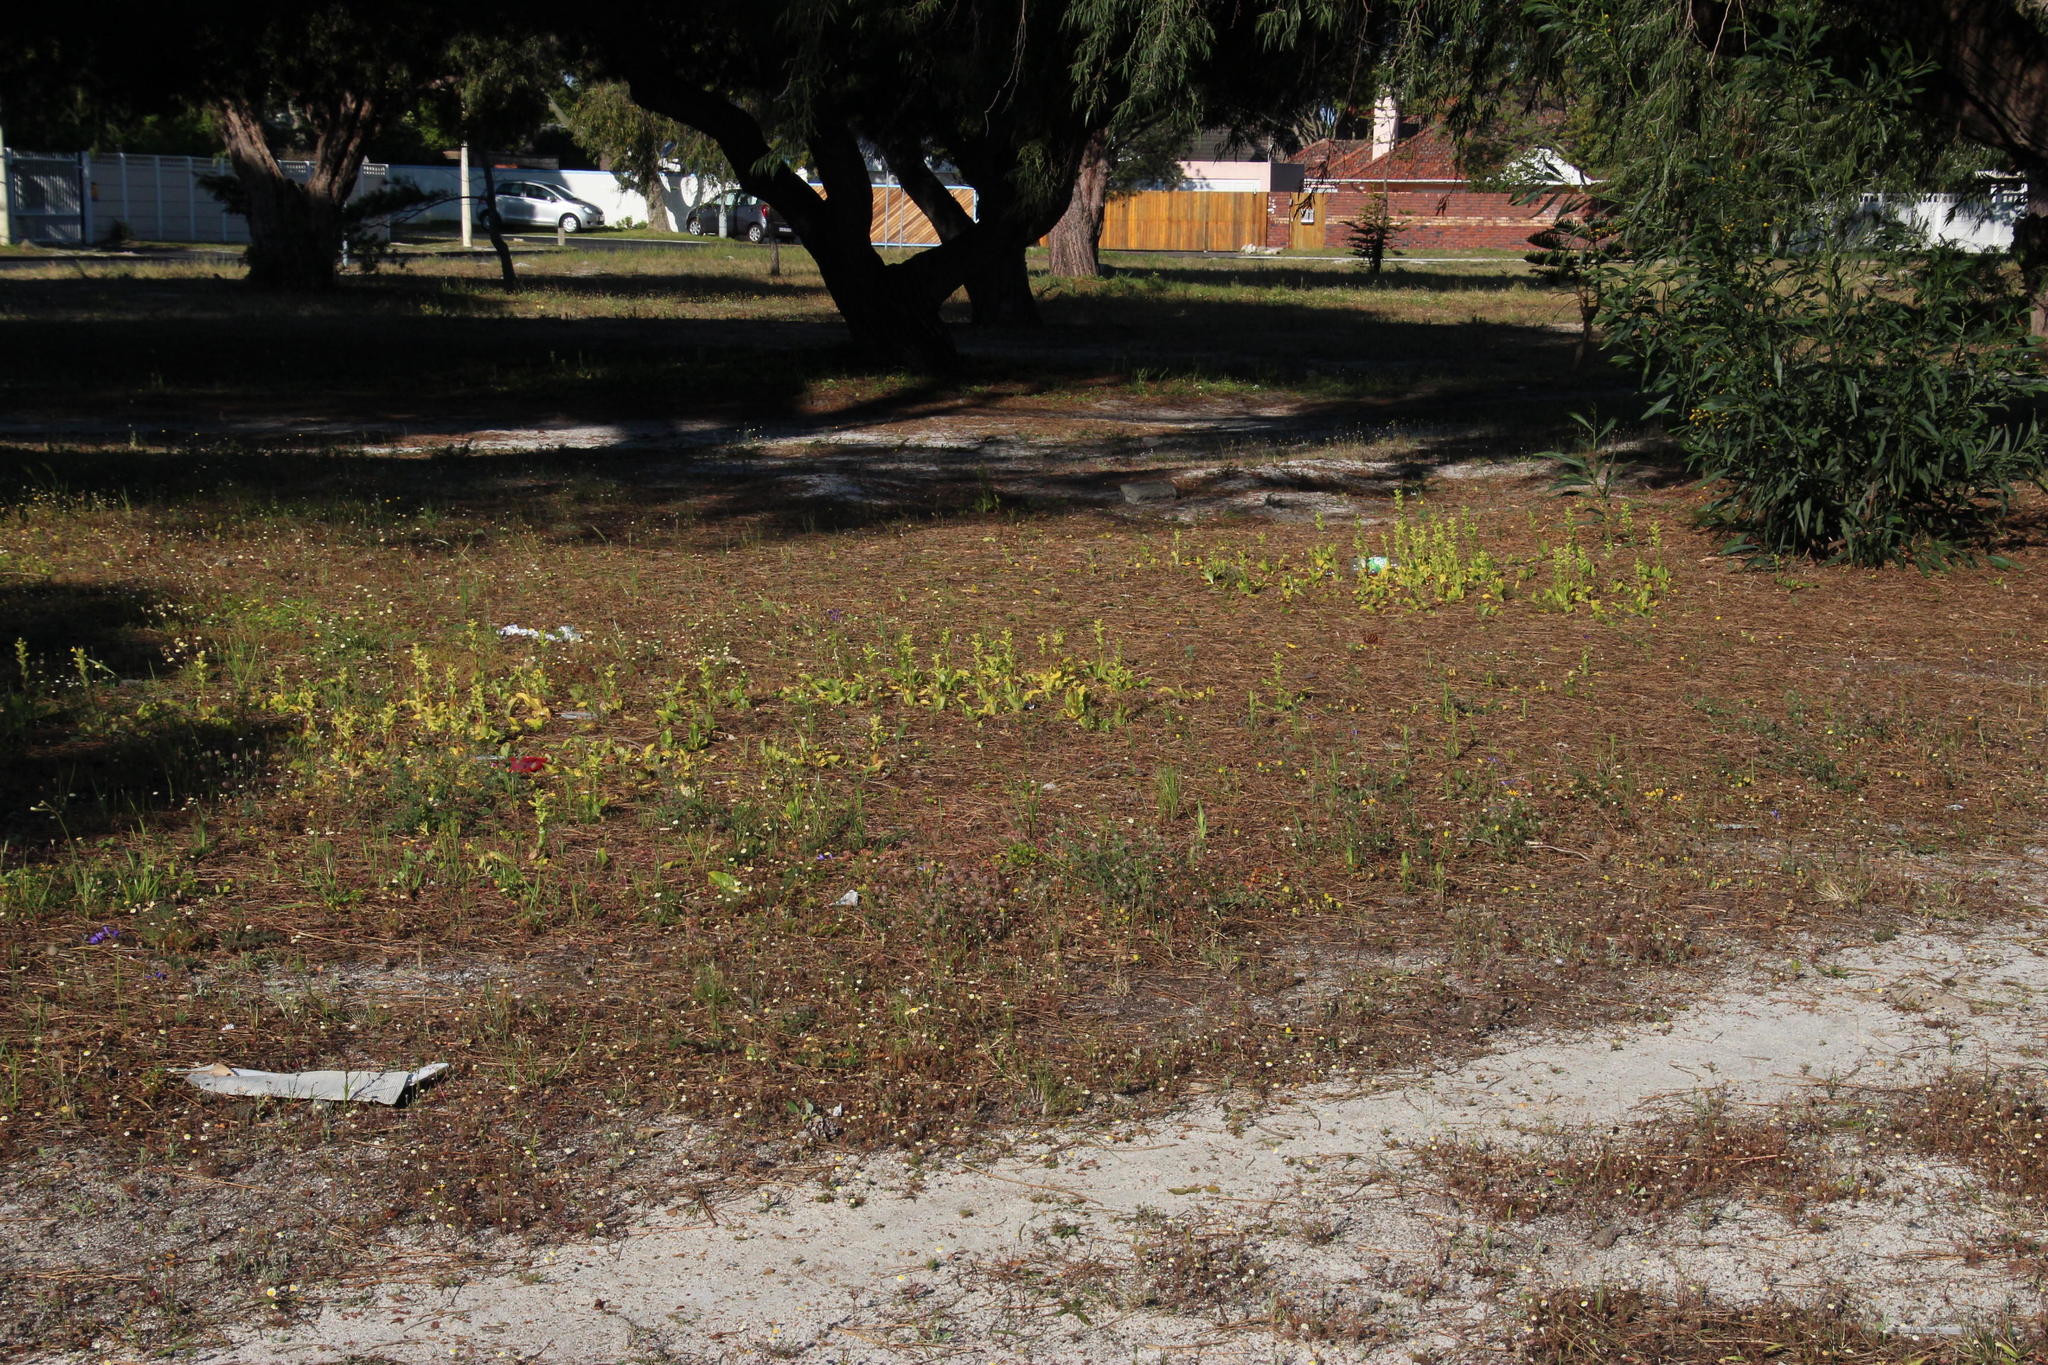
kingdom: Plantae
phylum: Tracheophyta
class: Liliopsida
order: Asparagales
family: Orchidaceae
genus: Satyrium
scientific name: Satyrium odorum
